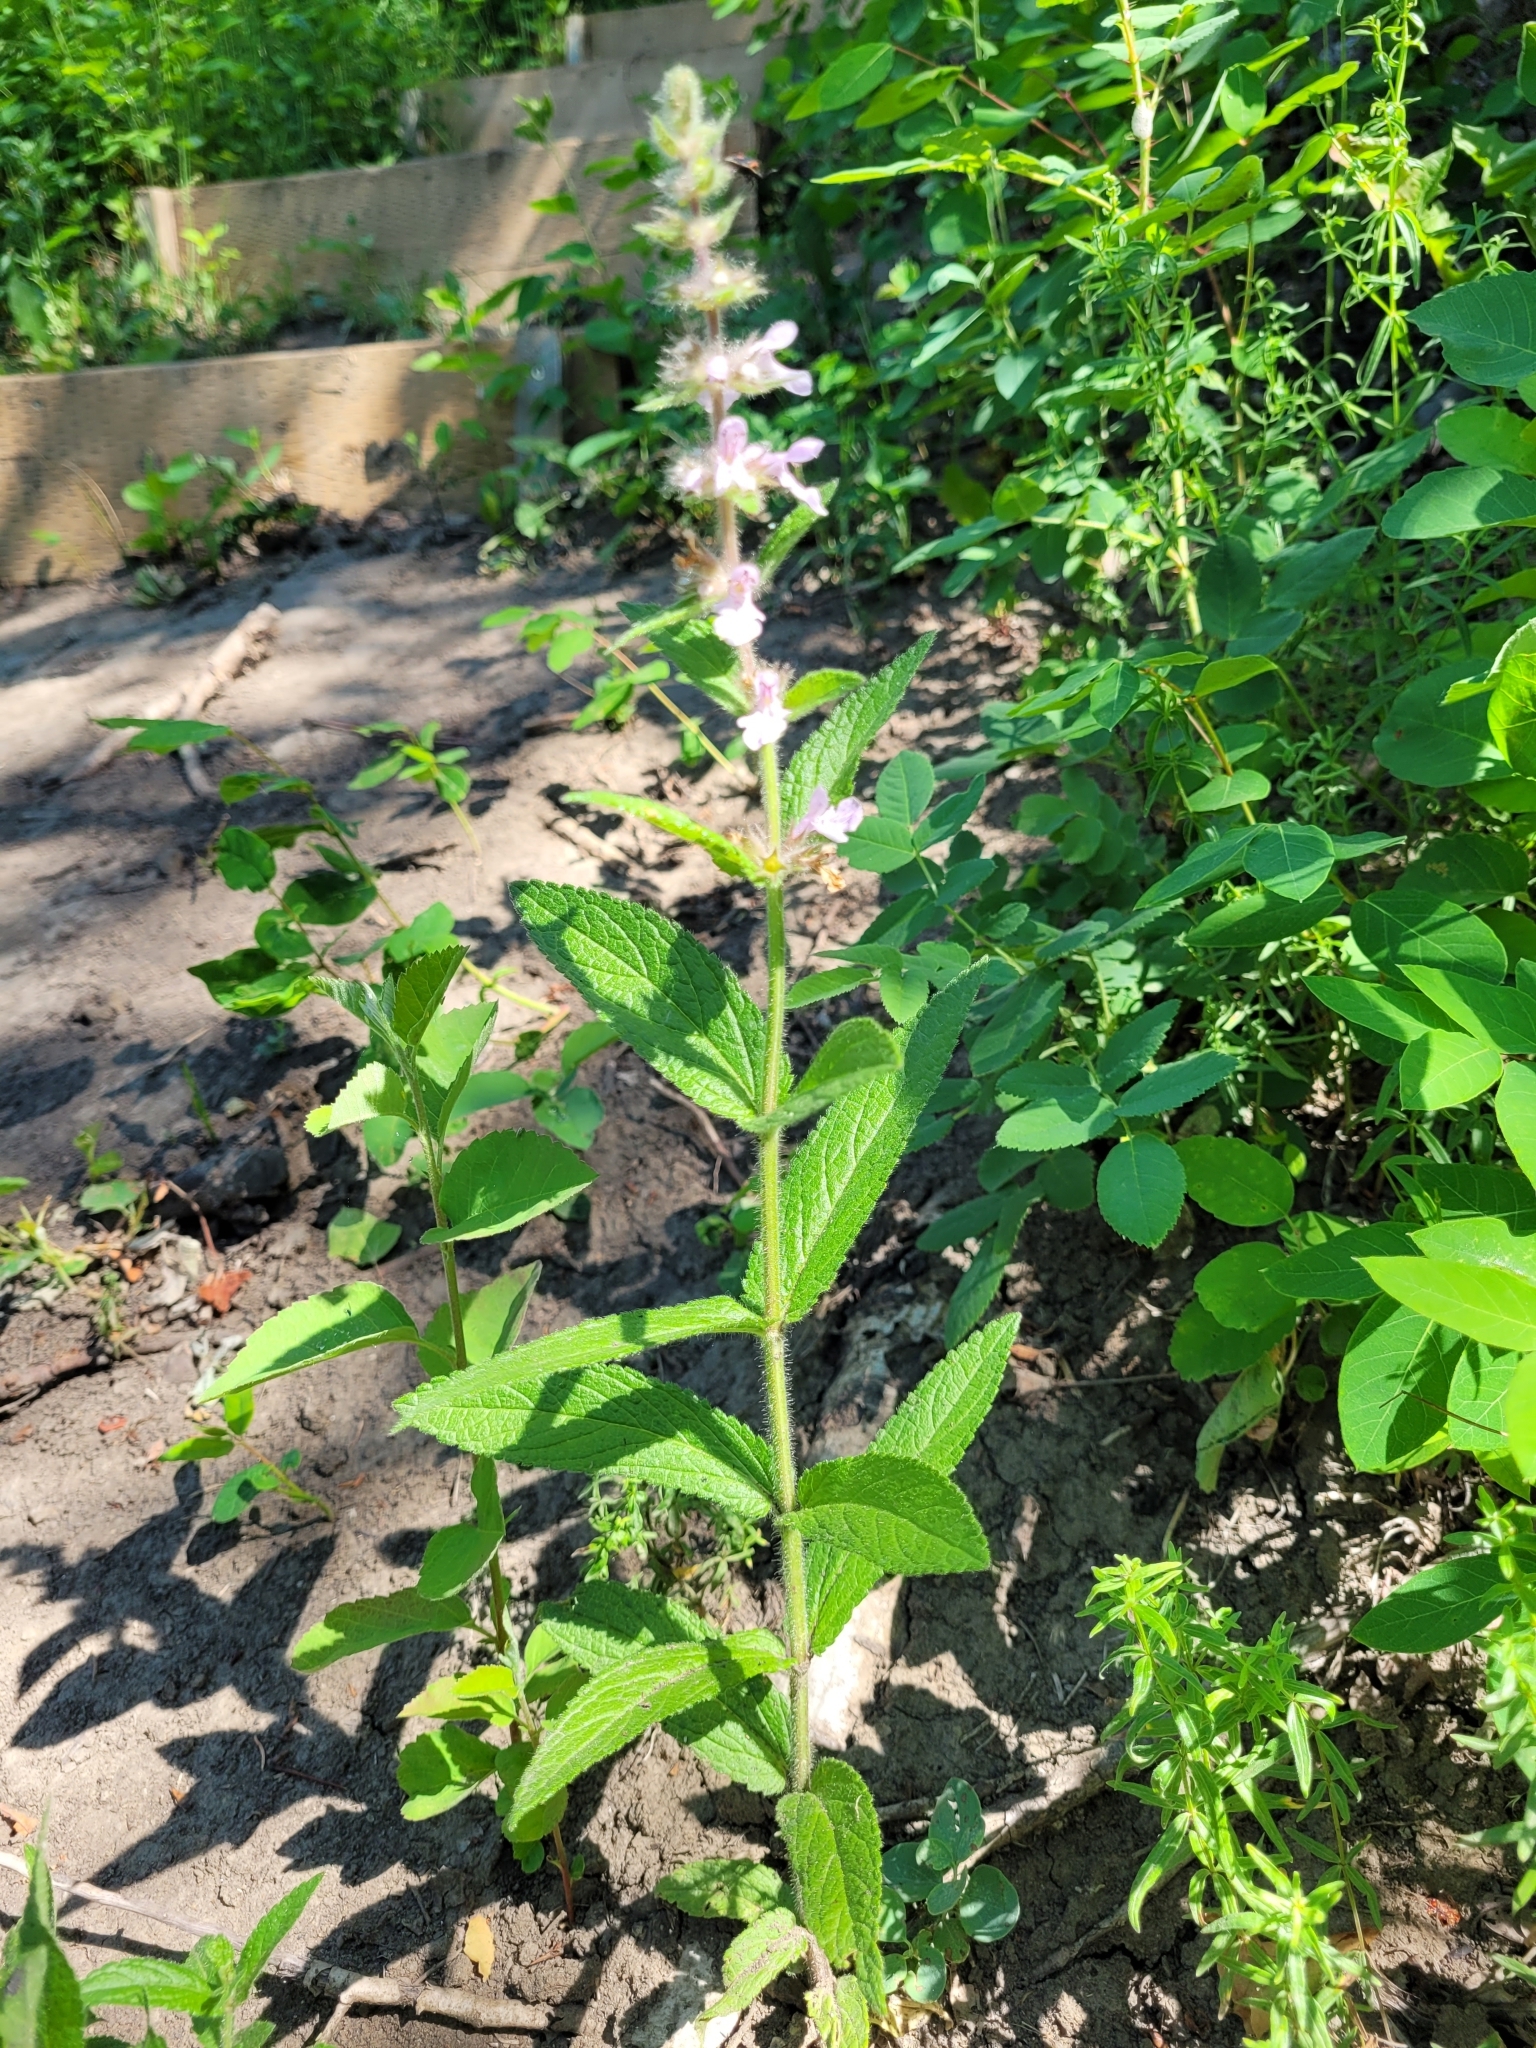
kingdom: Plantae
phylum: Tracheophyta
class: Magnoliopsida
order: Lamiales
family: Lamiaceae
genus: Stachys
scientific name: Stachys pilosa
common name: Hairy hedge-nettle
